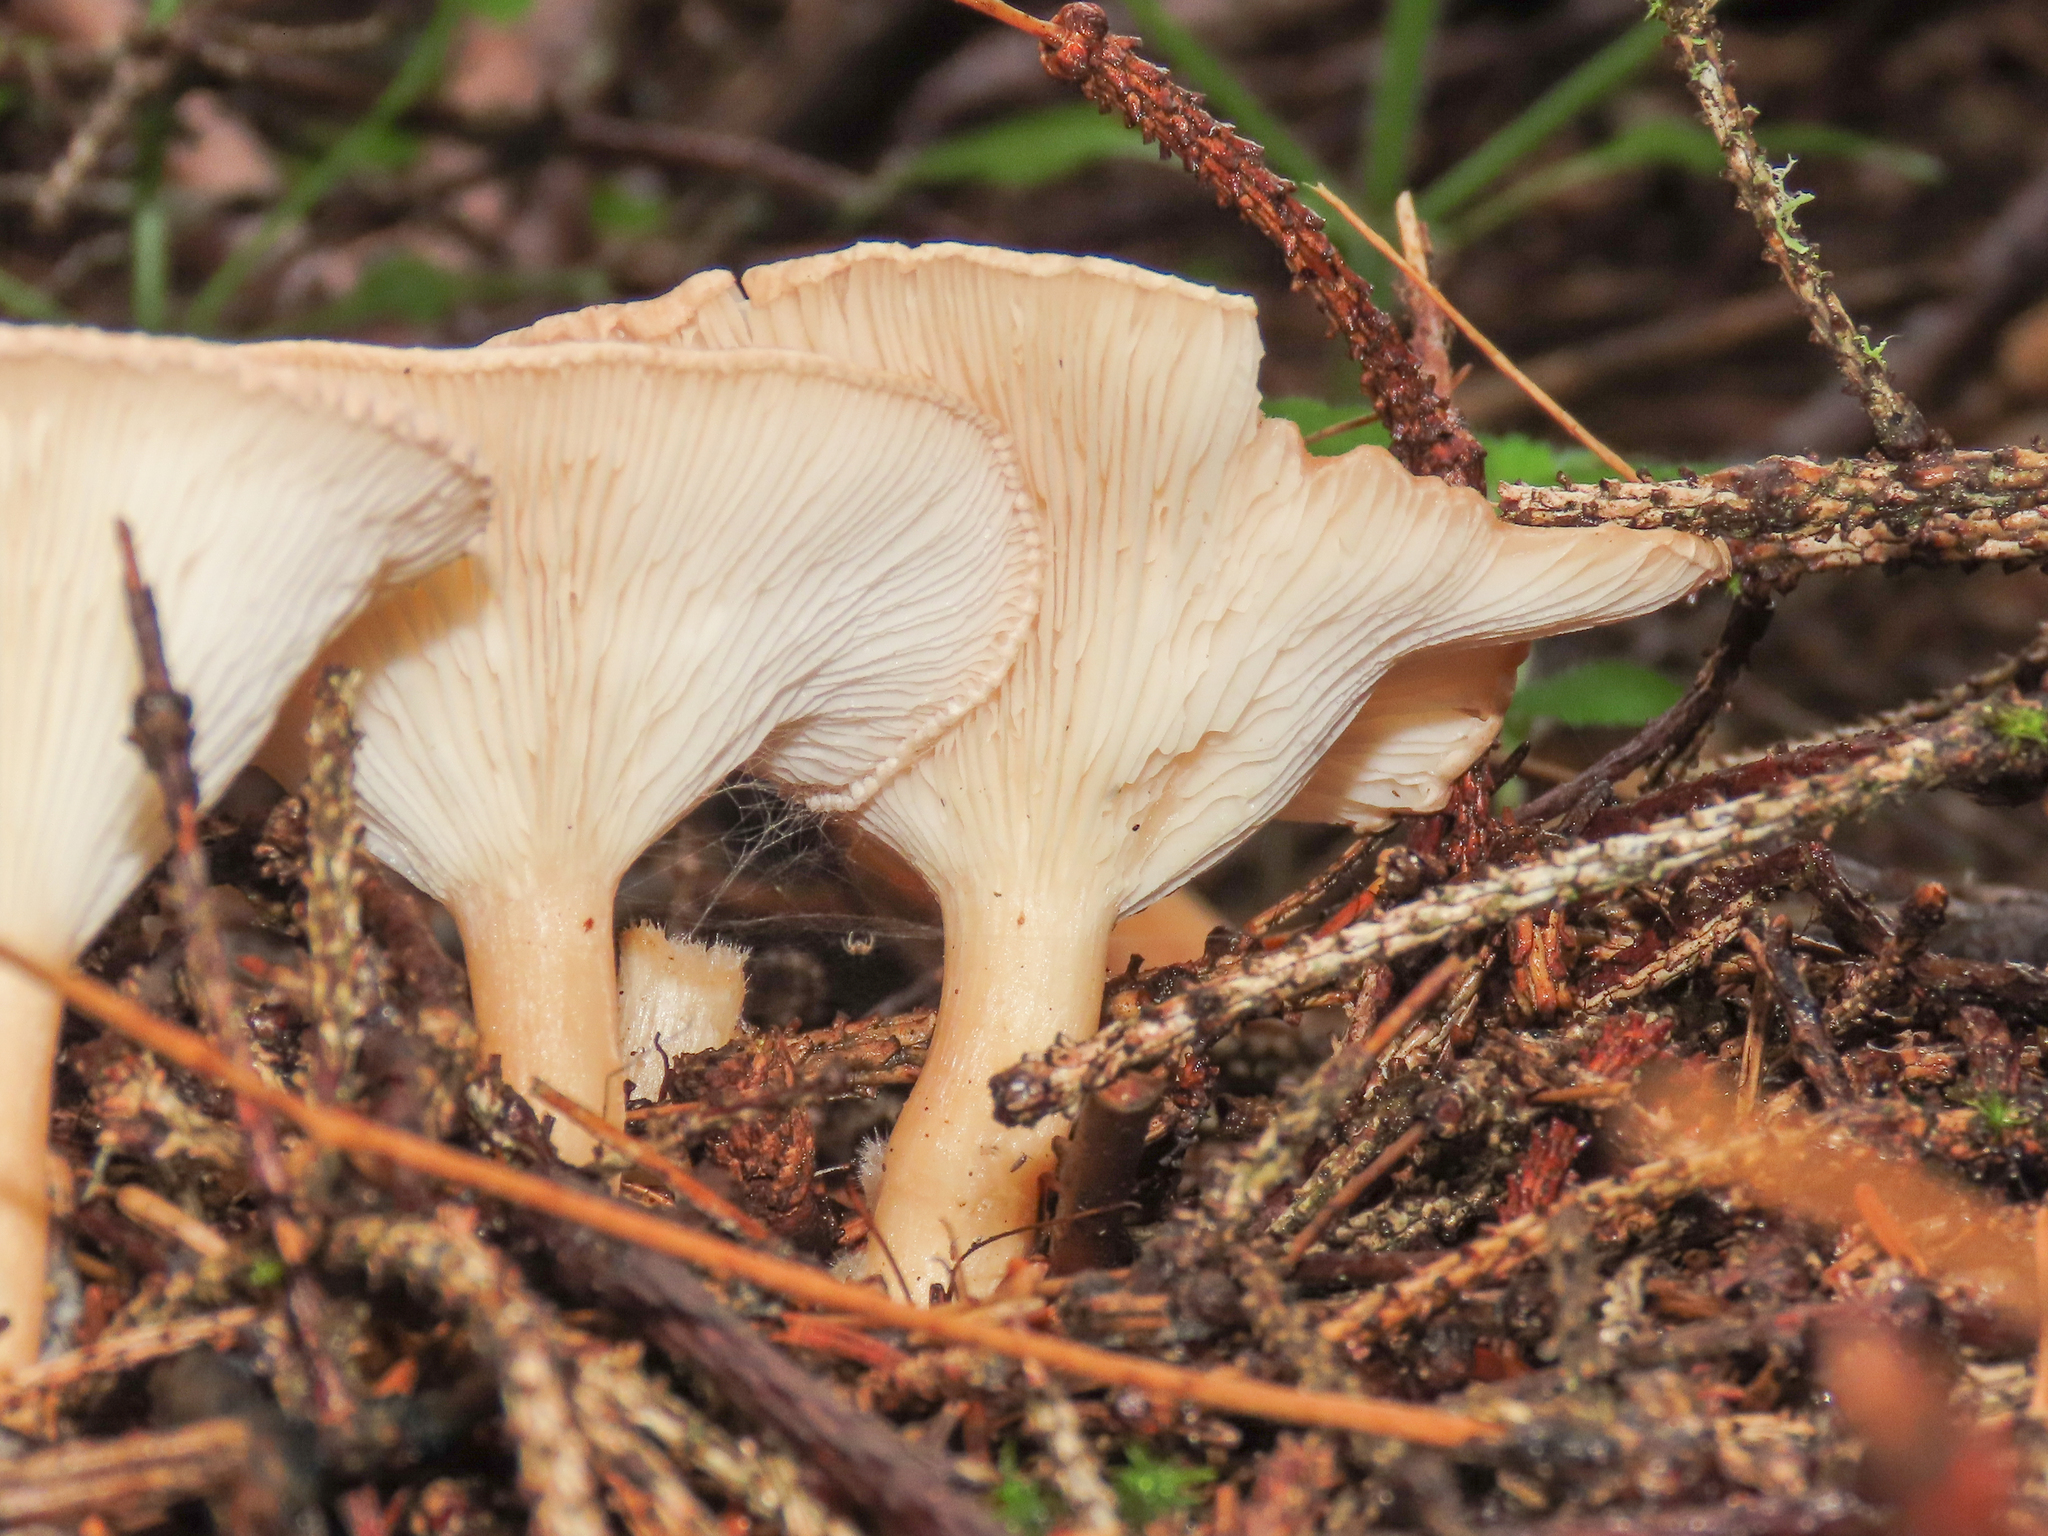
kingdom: Fungi
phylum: Basidiomycota
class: Agaricomycetes
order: Agaricales
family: Tricholomataceae
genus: Infundibulicybe
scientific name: Infundibulicybe gibba
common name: Common funnel
